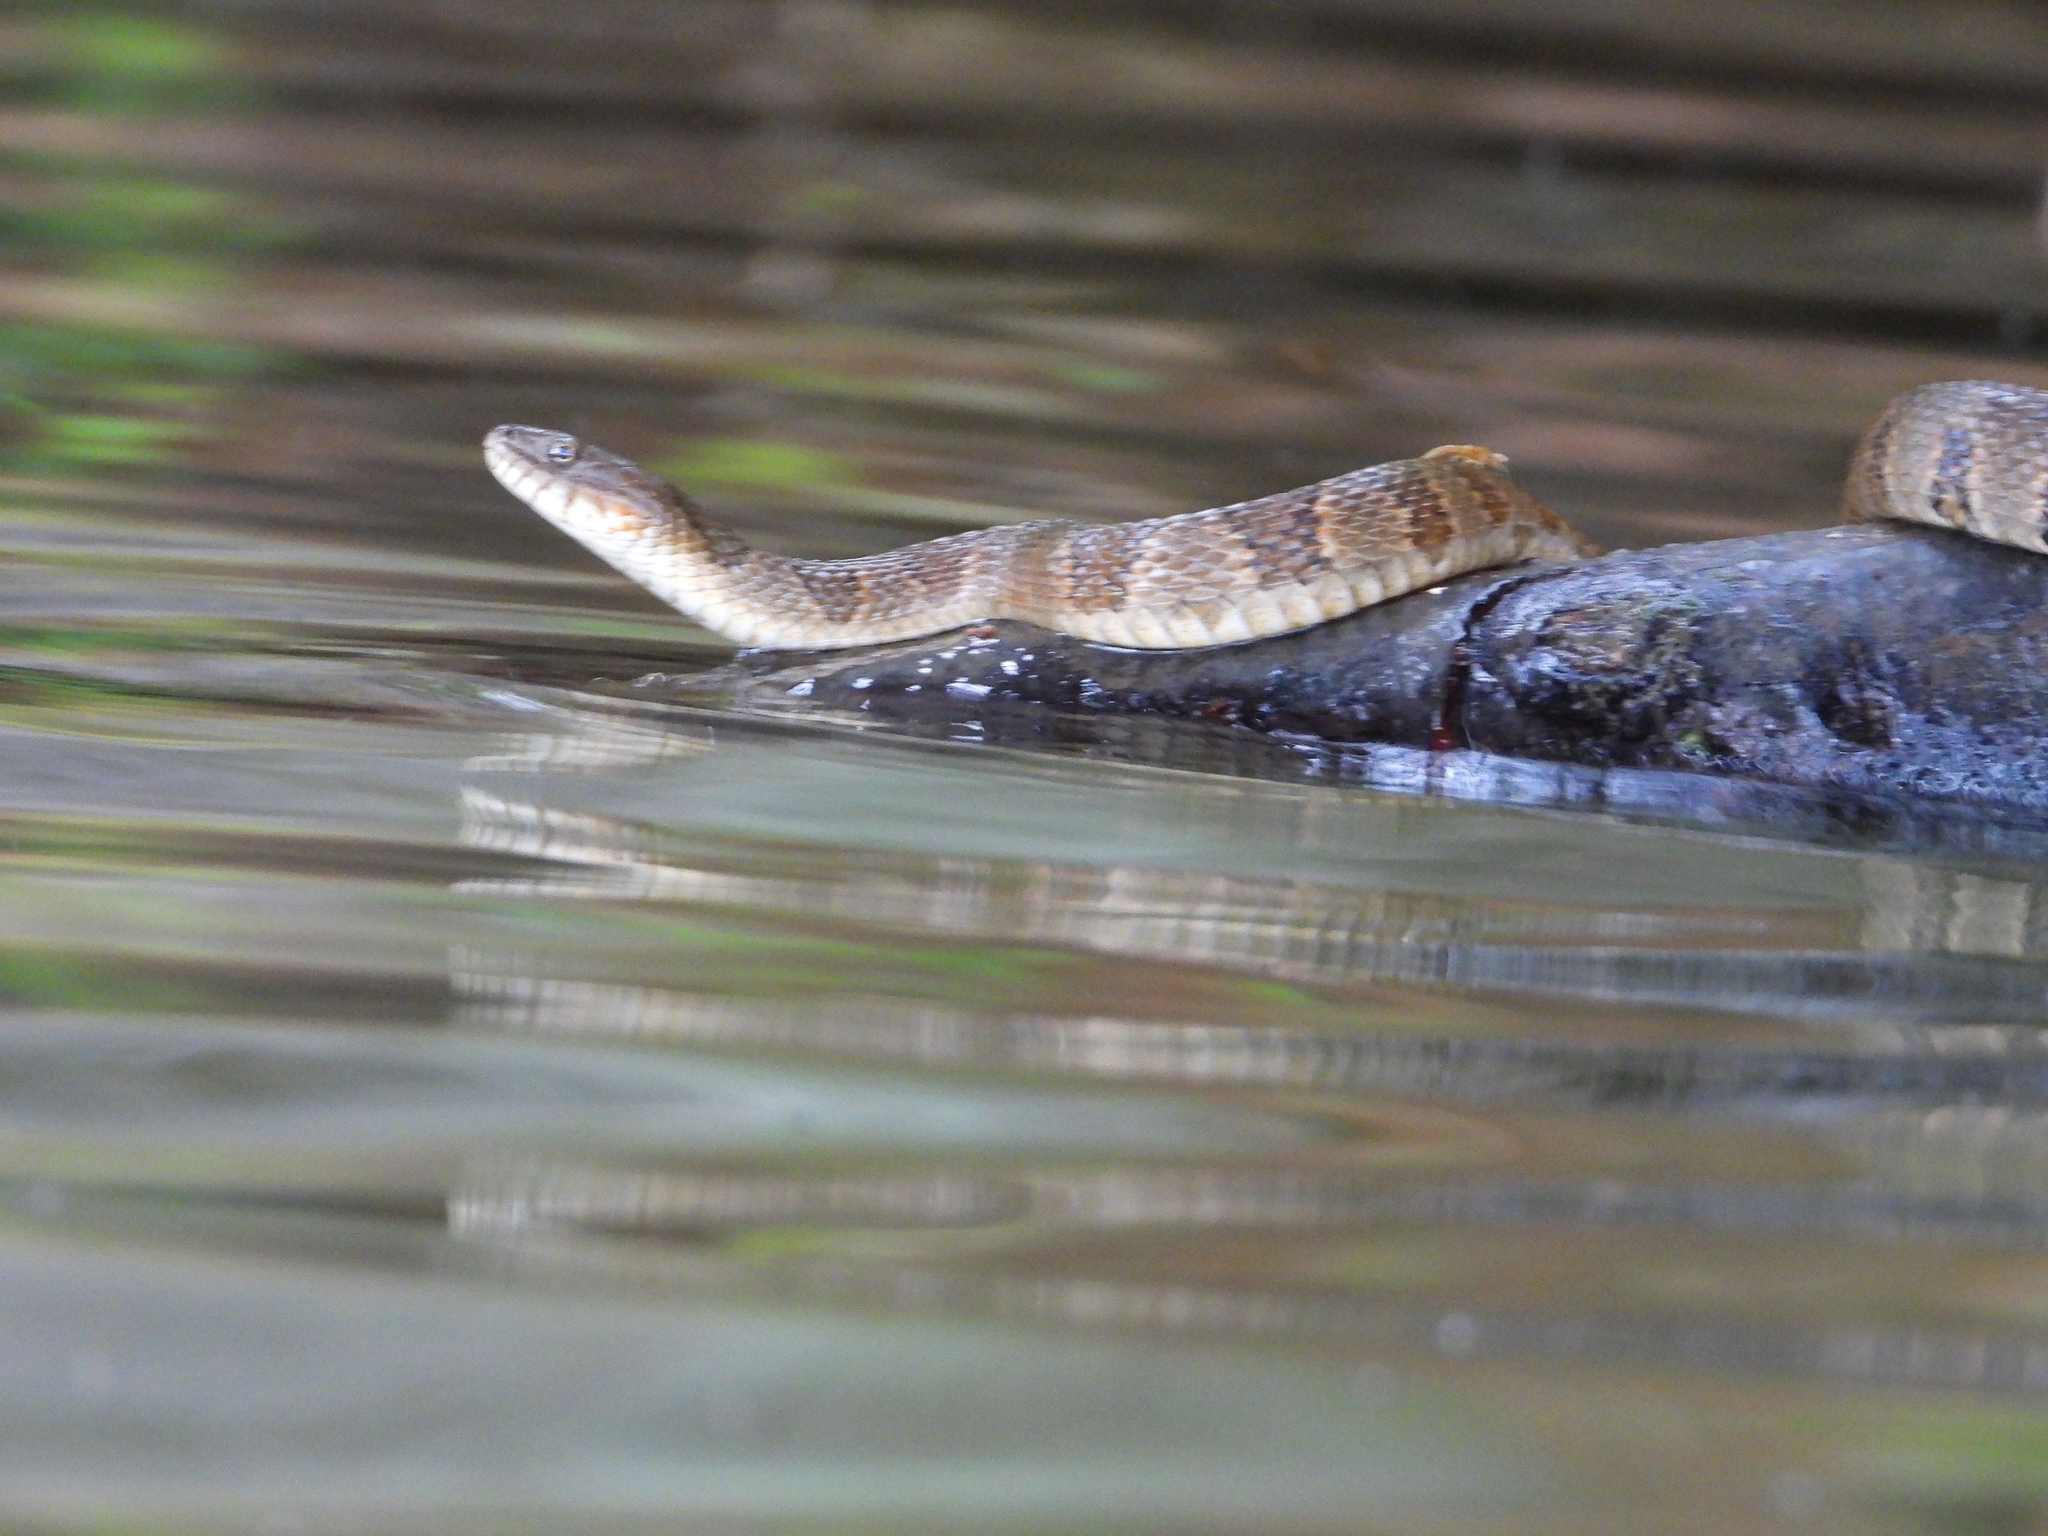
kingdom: Animalia
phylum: Chordata
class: Squamata
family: Colubridae
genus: Nerodia
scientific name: Nerodia sipedon
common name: Northern water snake
